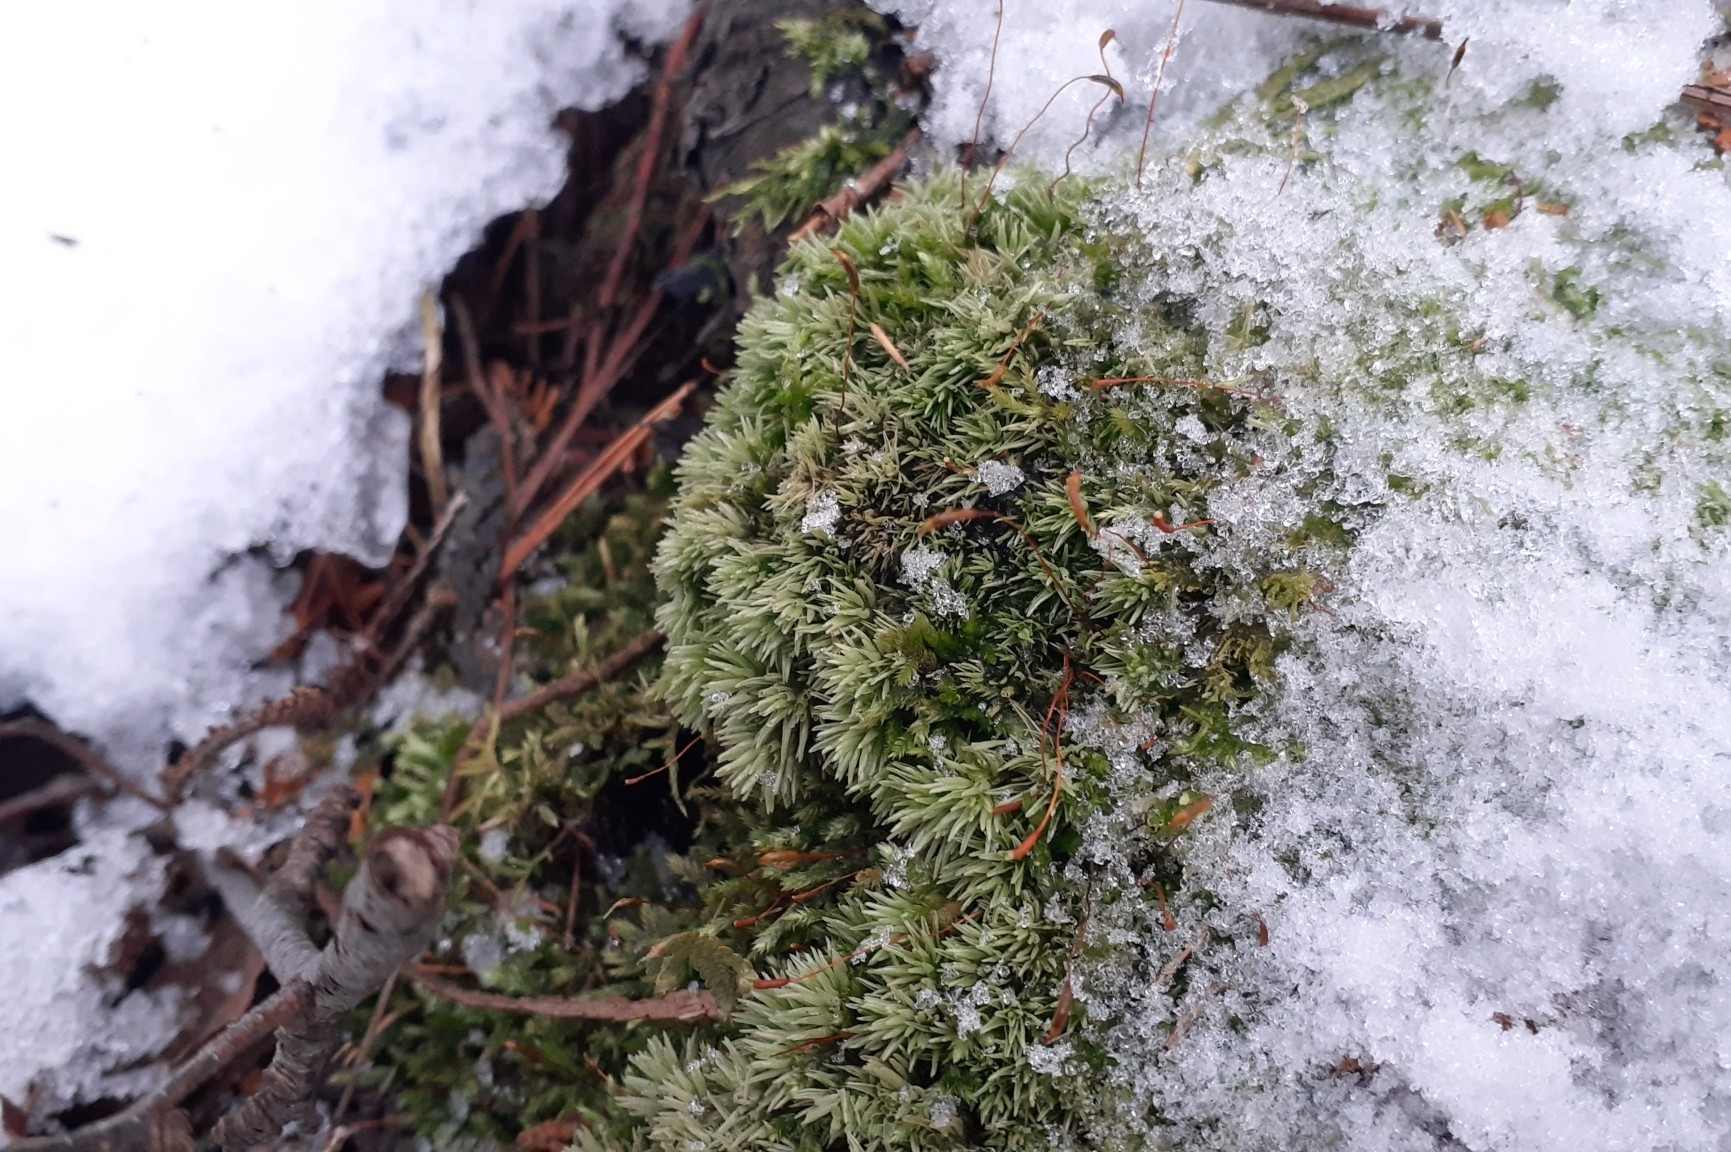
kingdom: Plantae
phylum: Bryophyta
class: Bryopsida
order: Dicranales
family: Leucobryaceae
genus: Leucobryum
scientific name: Leucobryum glaucum
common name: Large white-moss
